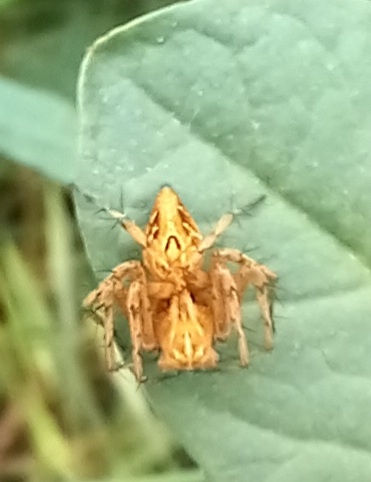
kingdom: Animalia
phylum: Arthropoda
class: Arachnida
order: Araneae
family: Oxyopidae
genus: Oxyopes
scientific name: Oxyopes lineatus
